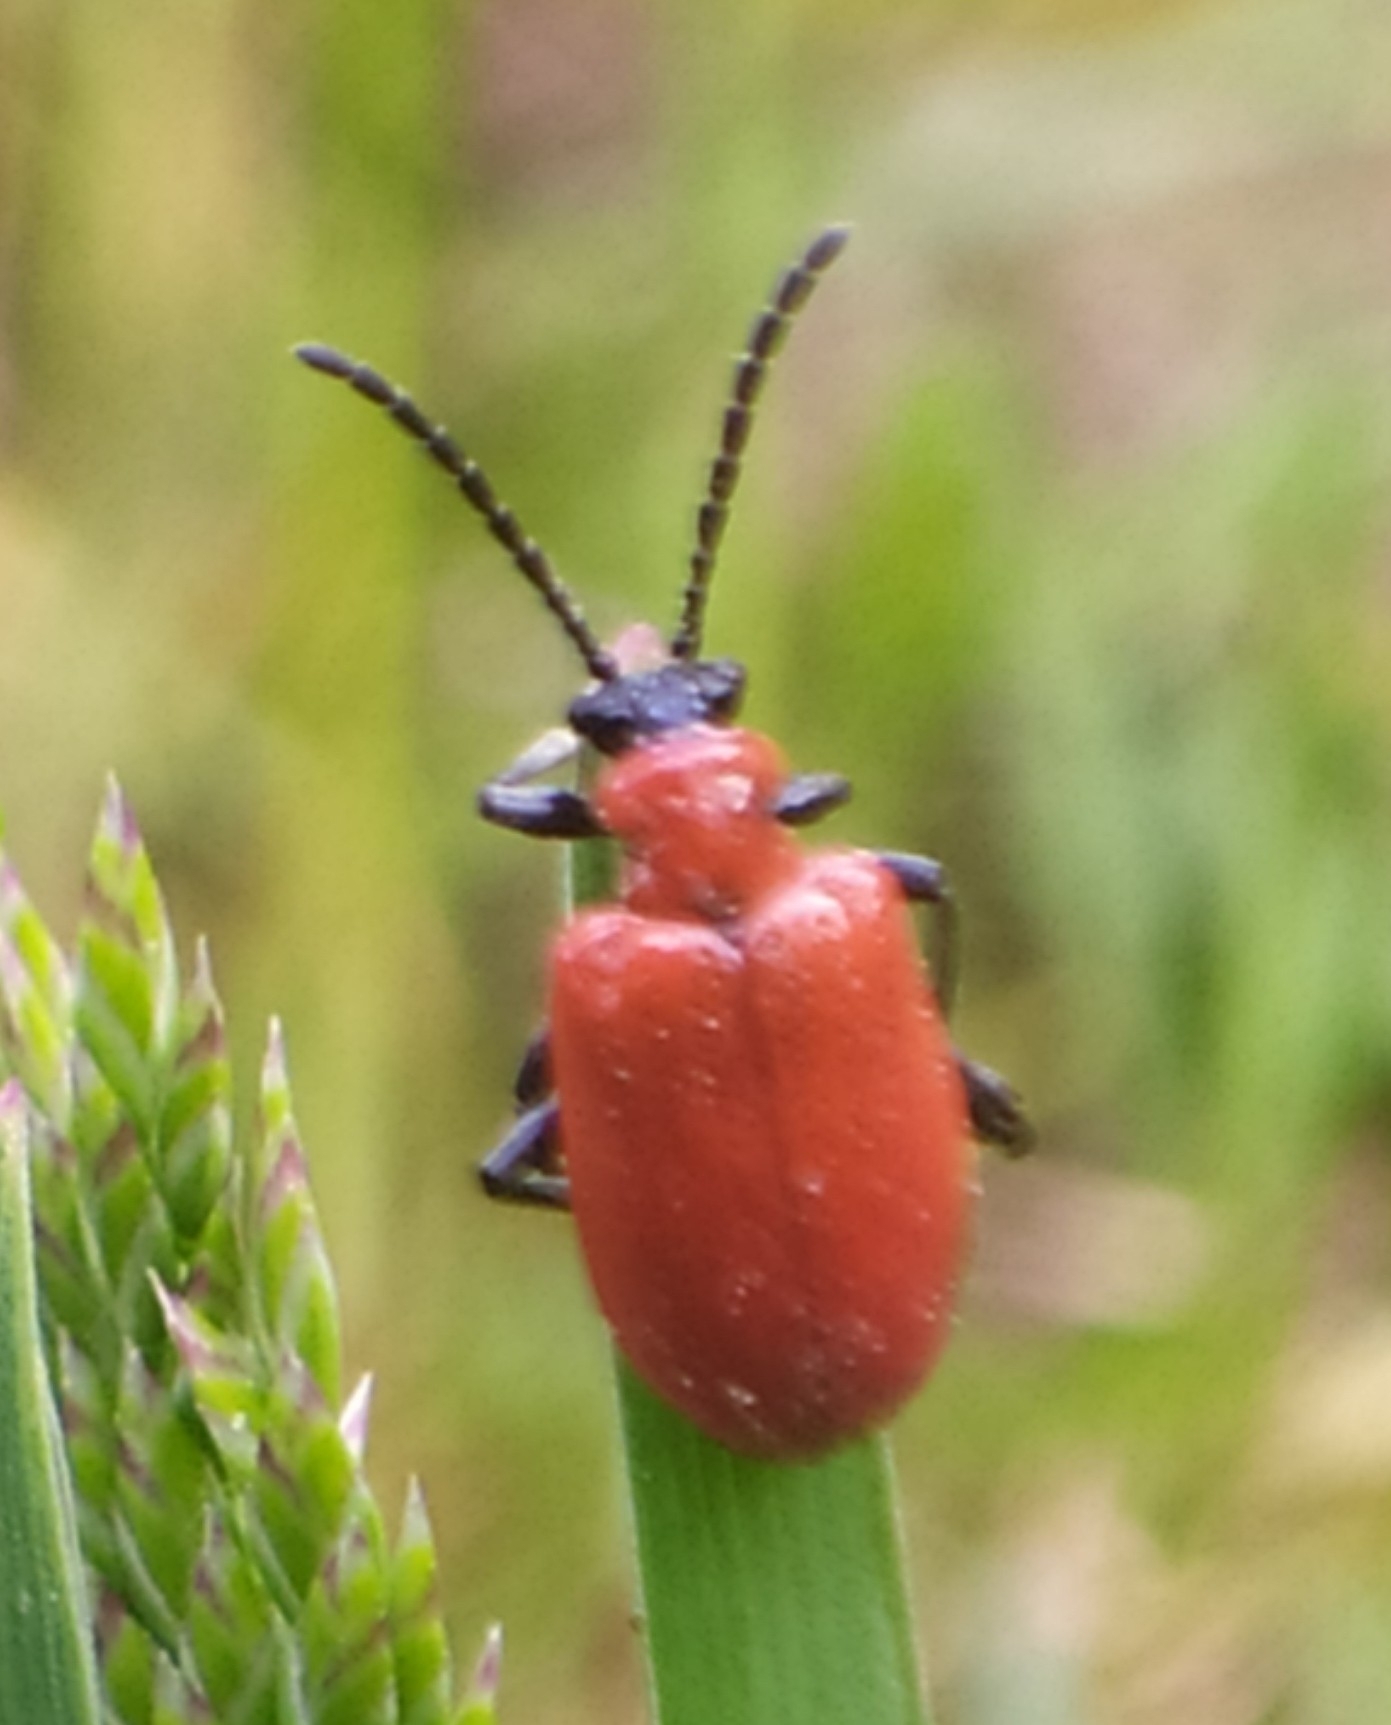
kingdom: Animalia
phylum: Arthropoda
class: Insecta
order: Coleoptera
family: Chrysomelidae
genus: Lilioceris
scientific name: Lilioceris lilii
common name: Lily beetle
